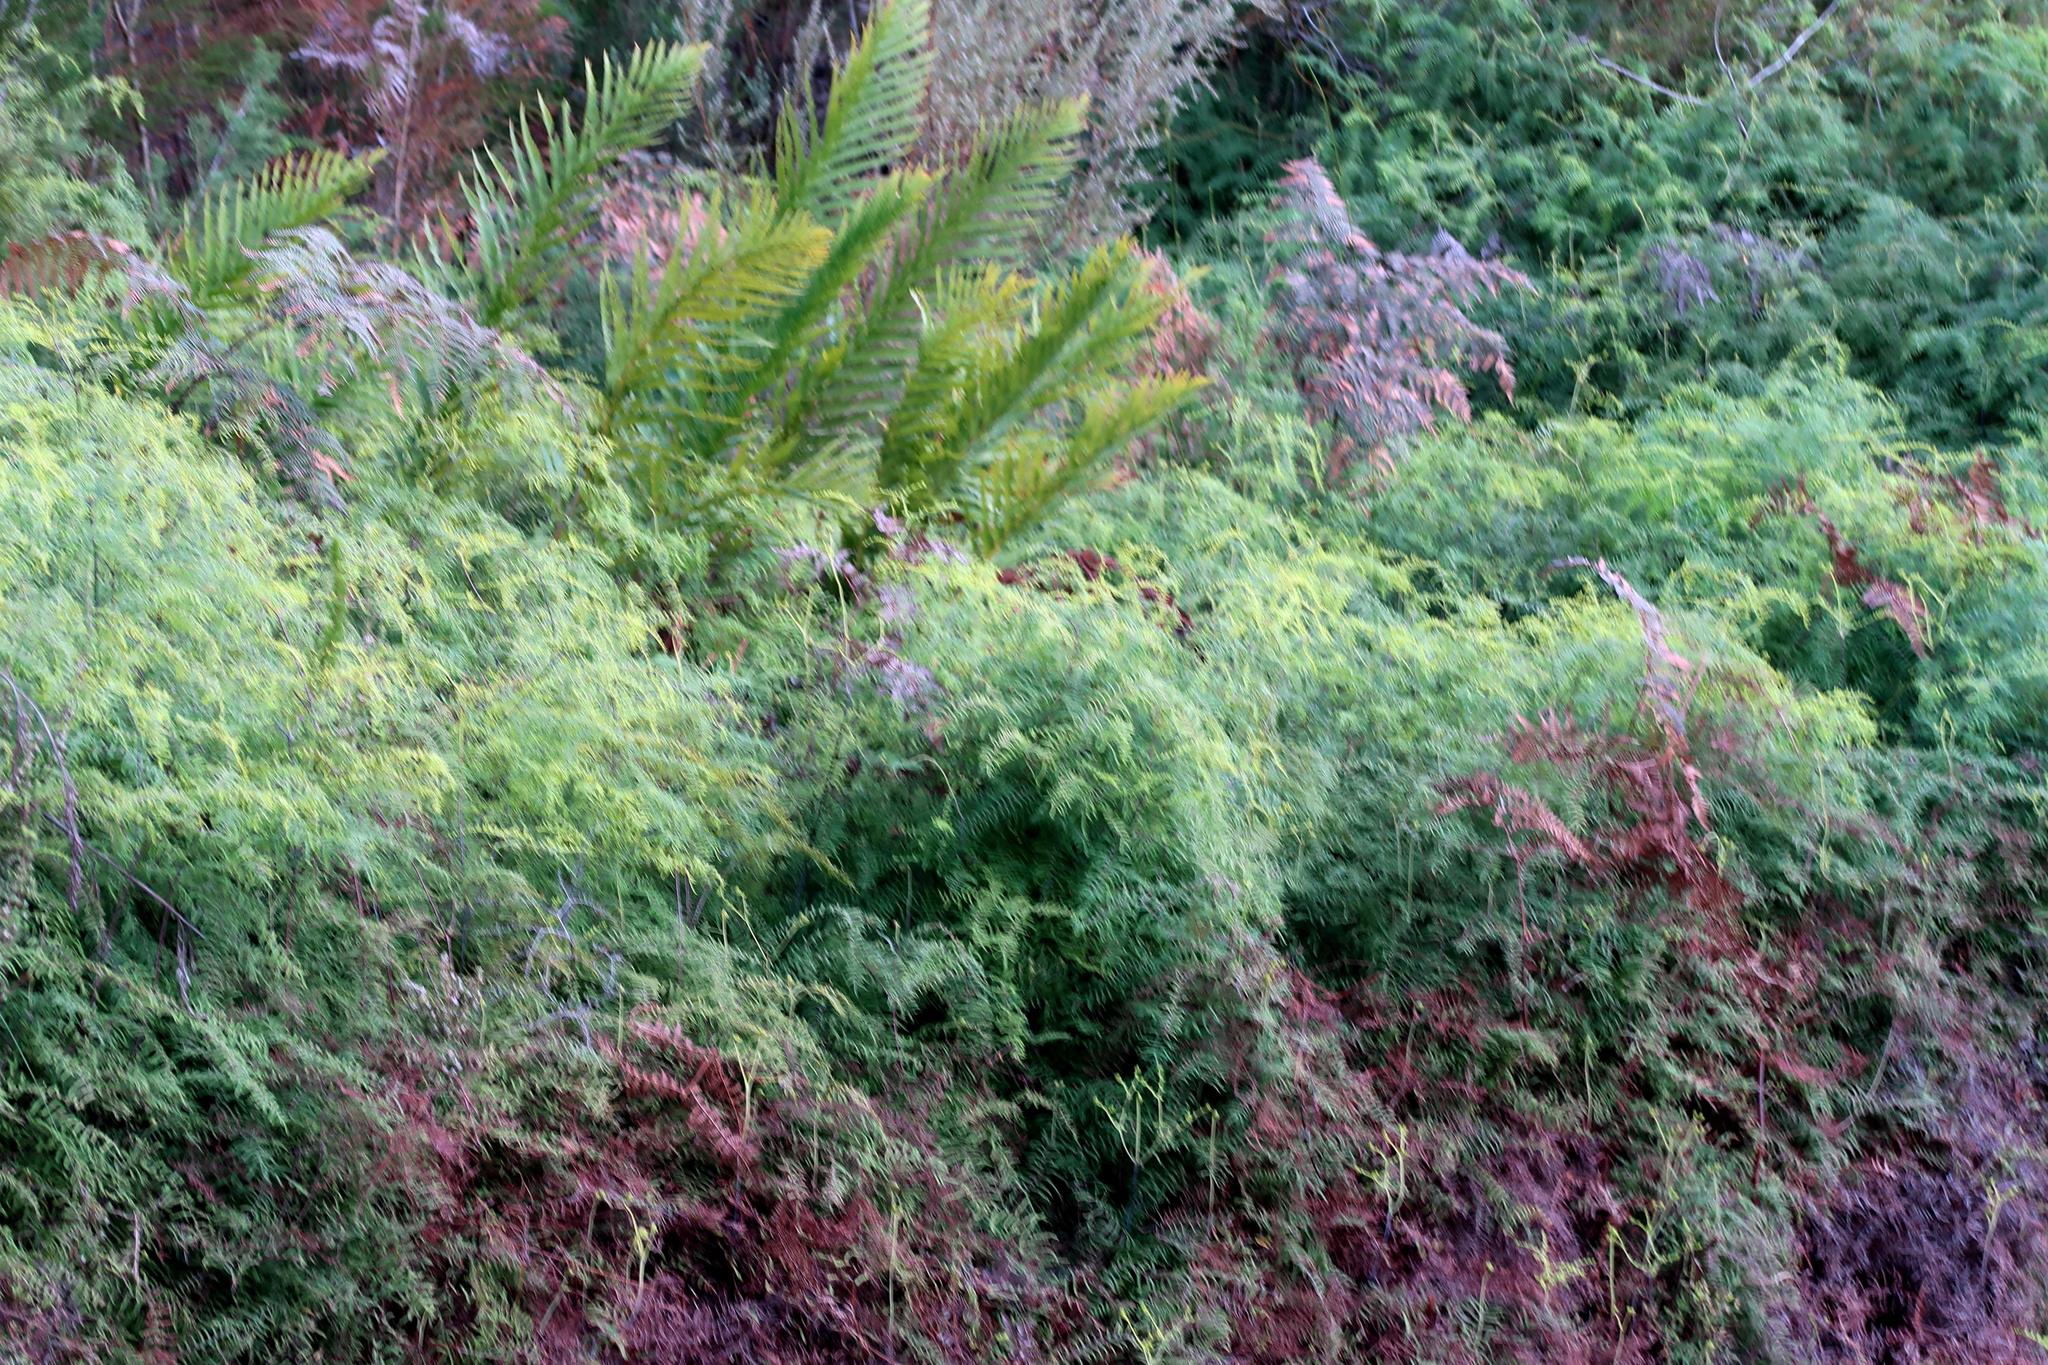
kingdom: Plantae
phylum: Tracheophyta
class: Polypodiopsida
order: Gleicheniales
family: Gleicheniaceae
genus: Gleichenia
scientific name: Gleichenia polypodioides
